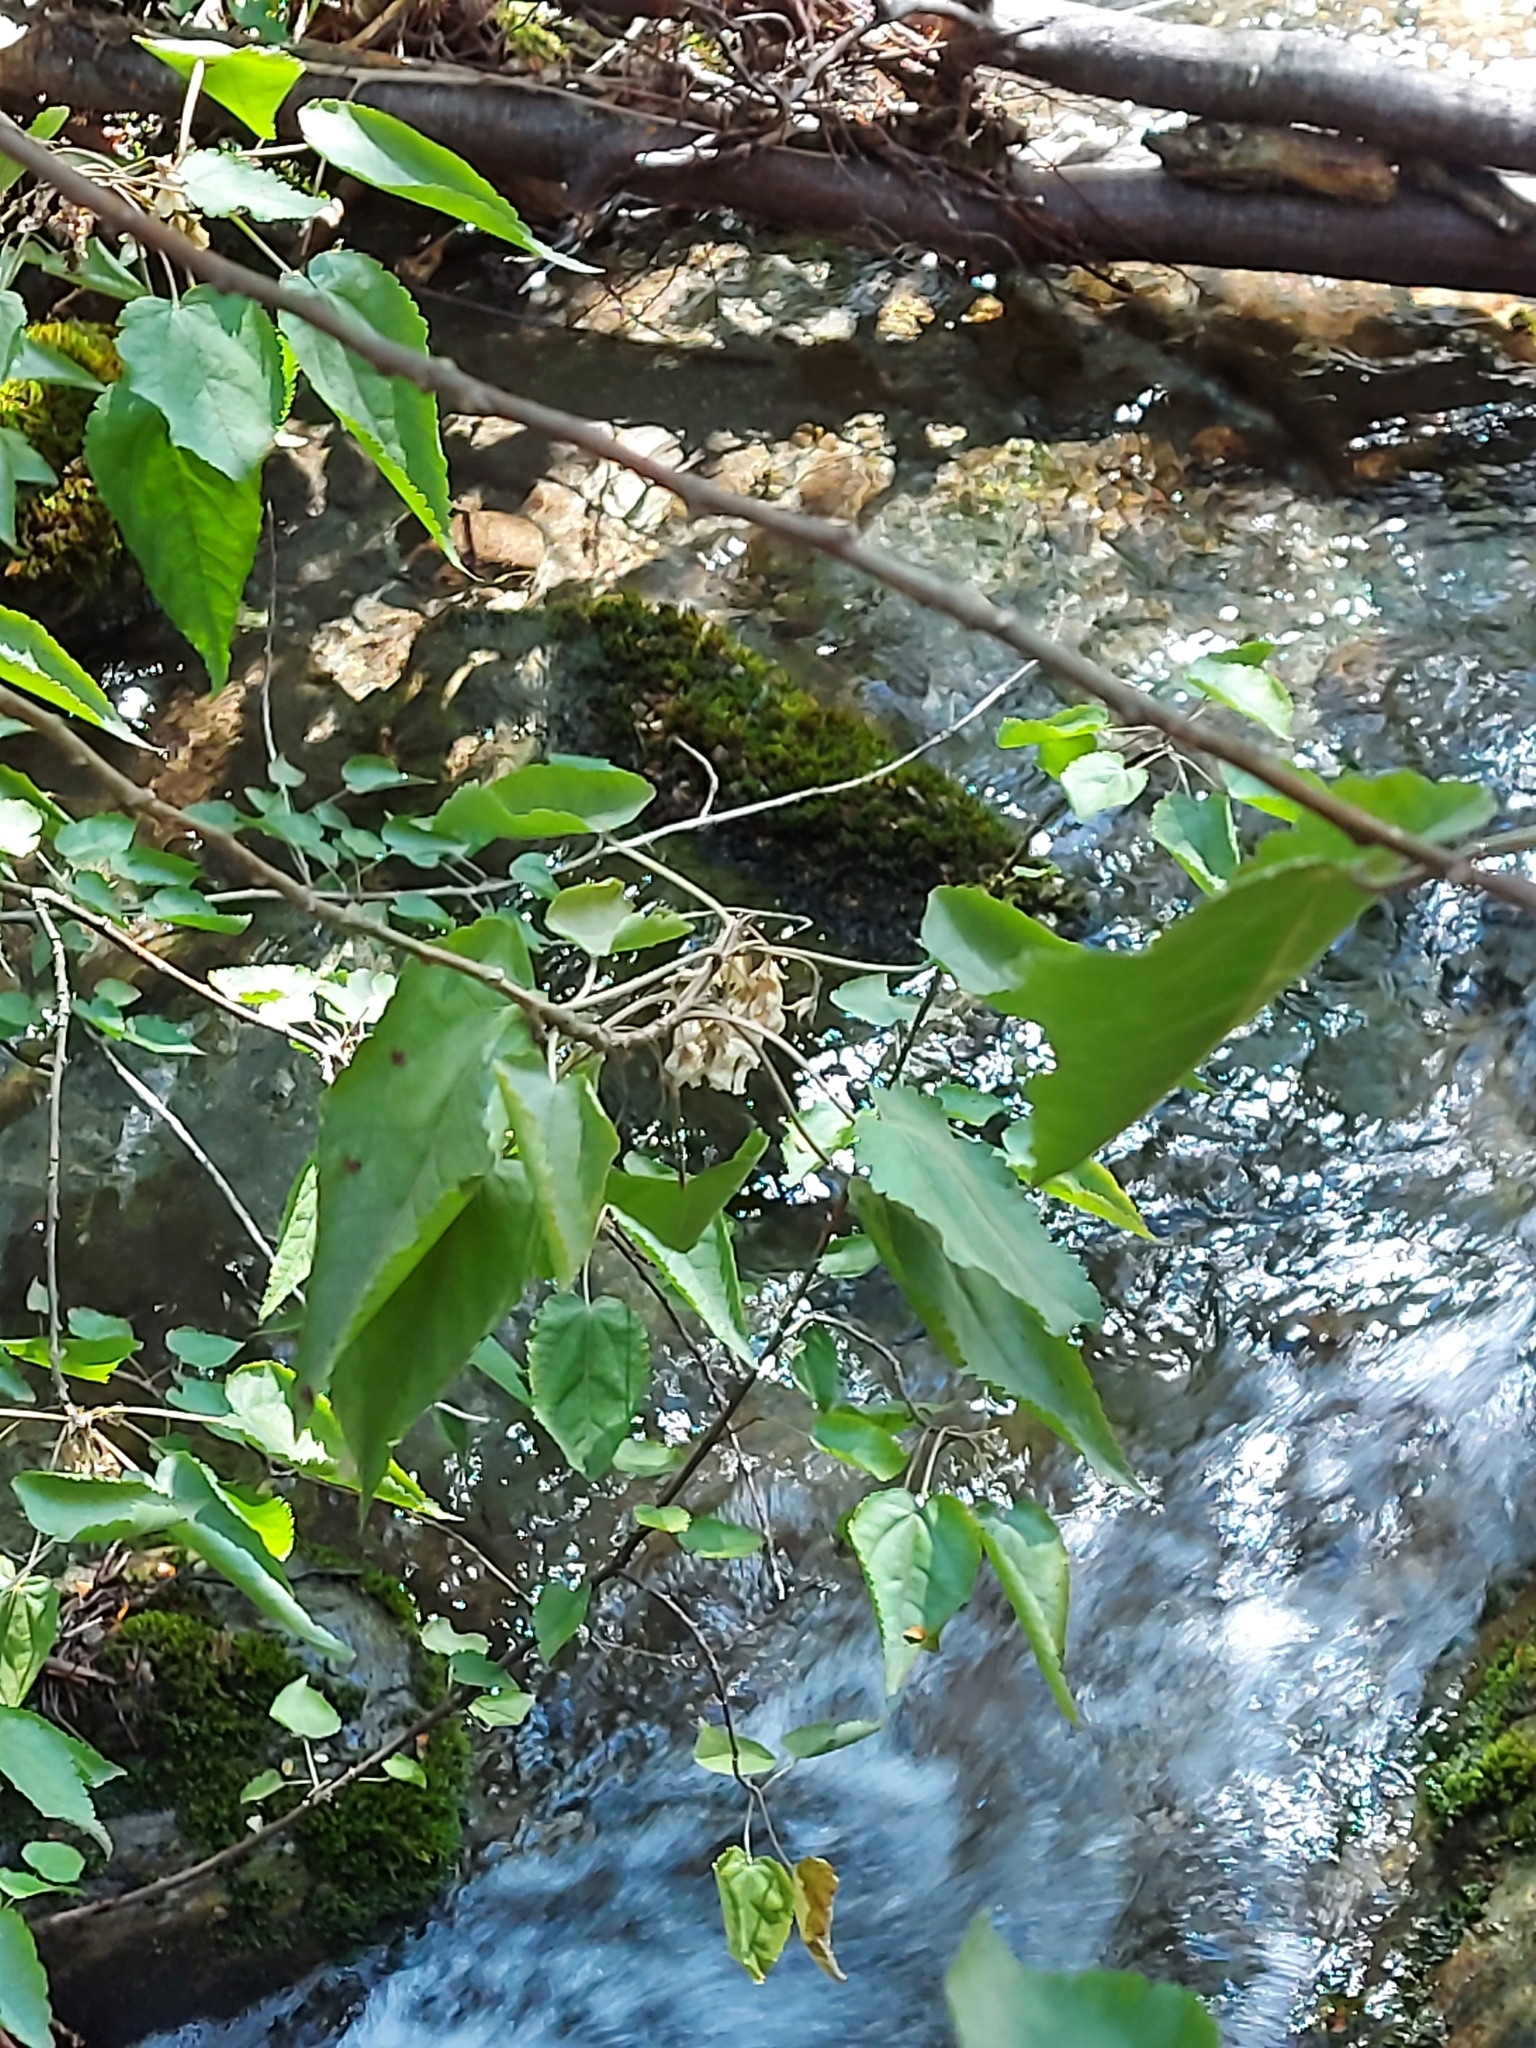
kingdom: Plantae
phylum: Tracheophyta
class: Magnoliopsida
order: Malvales
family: Malvaceae
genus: Hoheria
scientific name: Hoheria glabrata
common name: Mountain-ribbon
